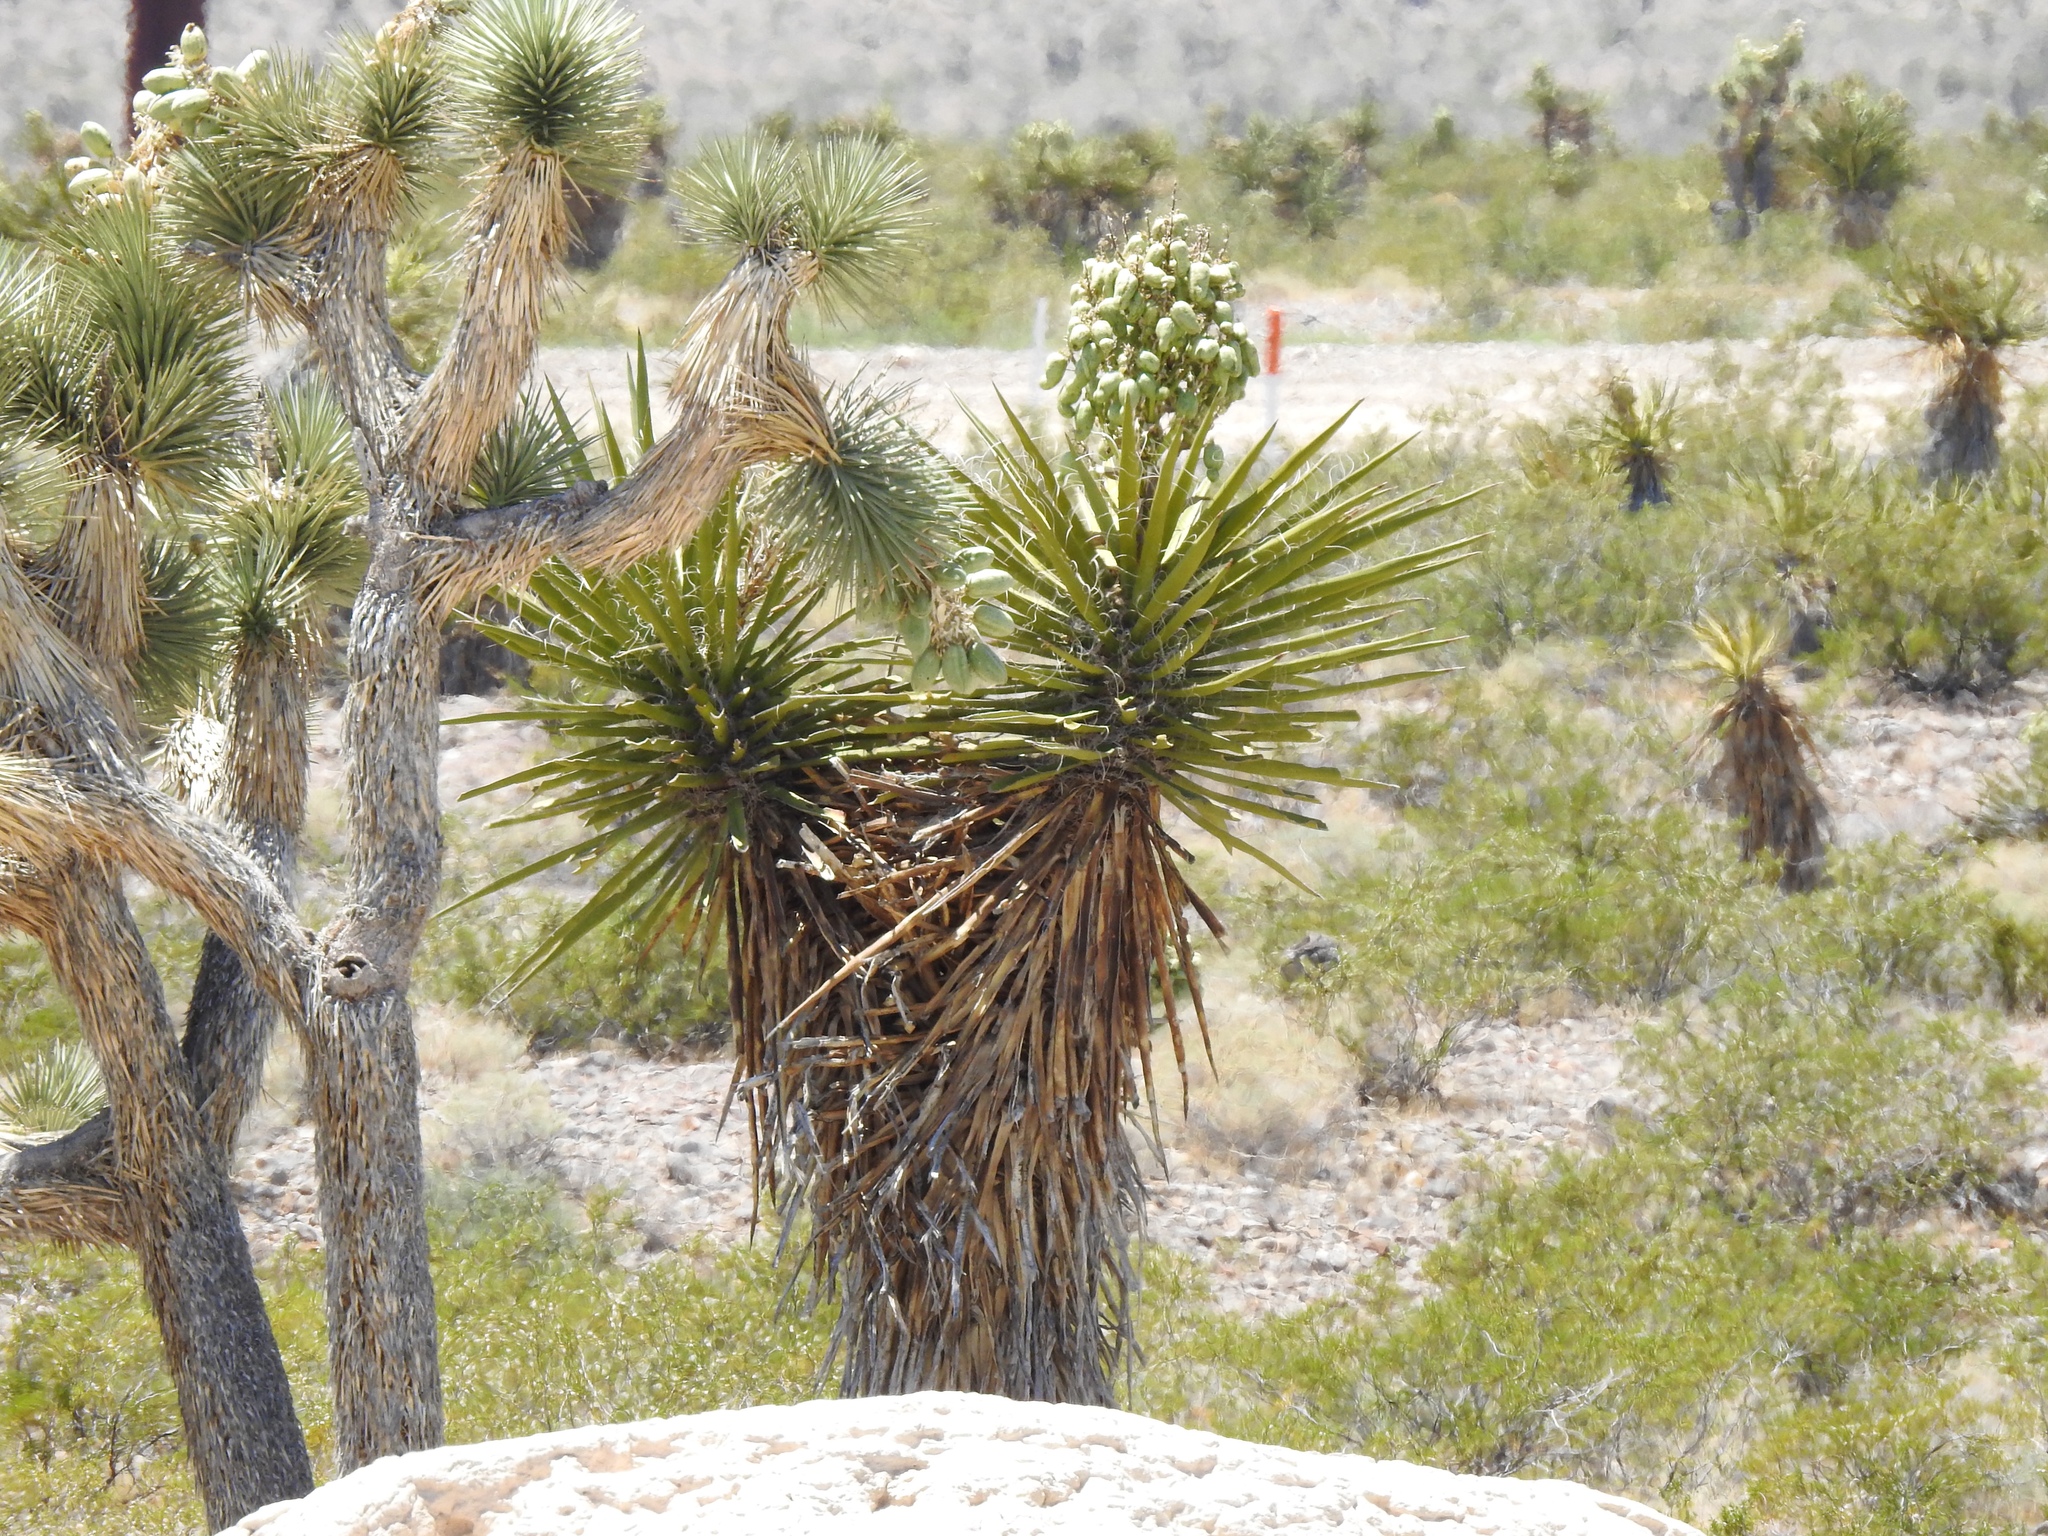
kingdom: Plantae
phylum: Tracheophyta
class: Liliopsida
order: Asparagales
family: Asparagaceae
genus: Yucca
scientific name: Yucca schidigera
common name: Mojave yucca
